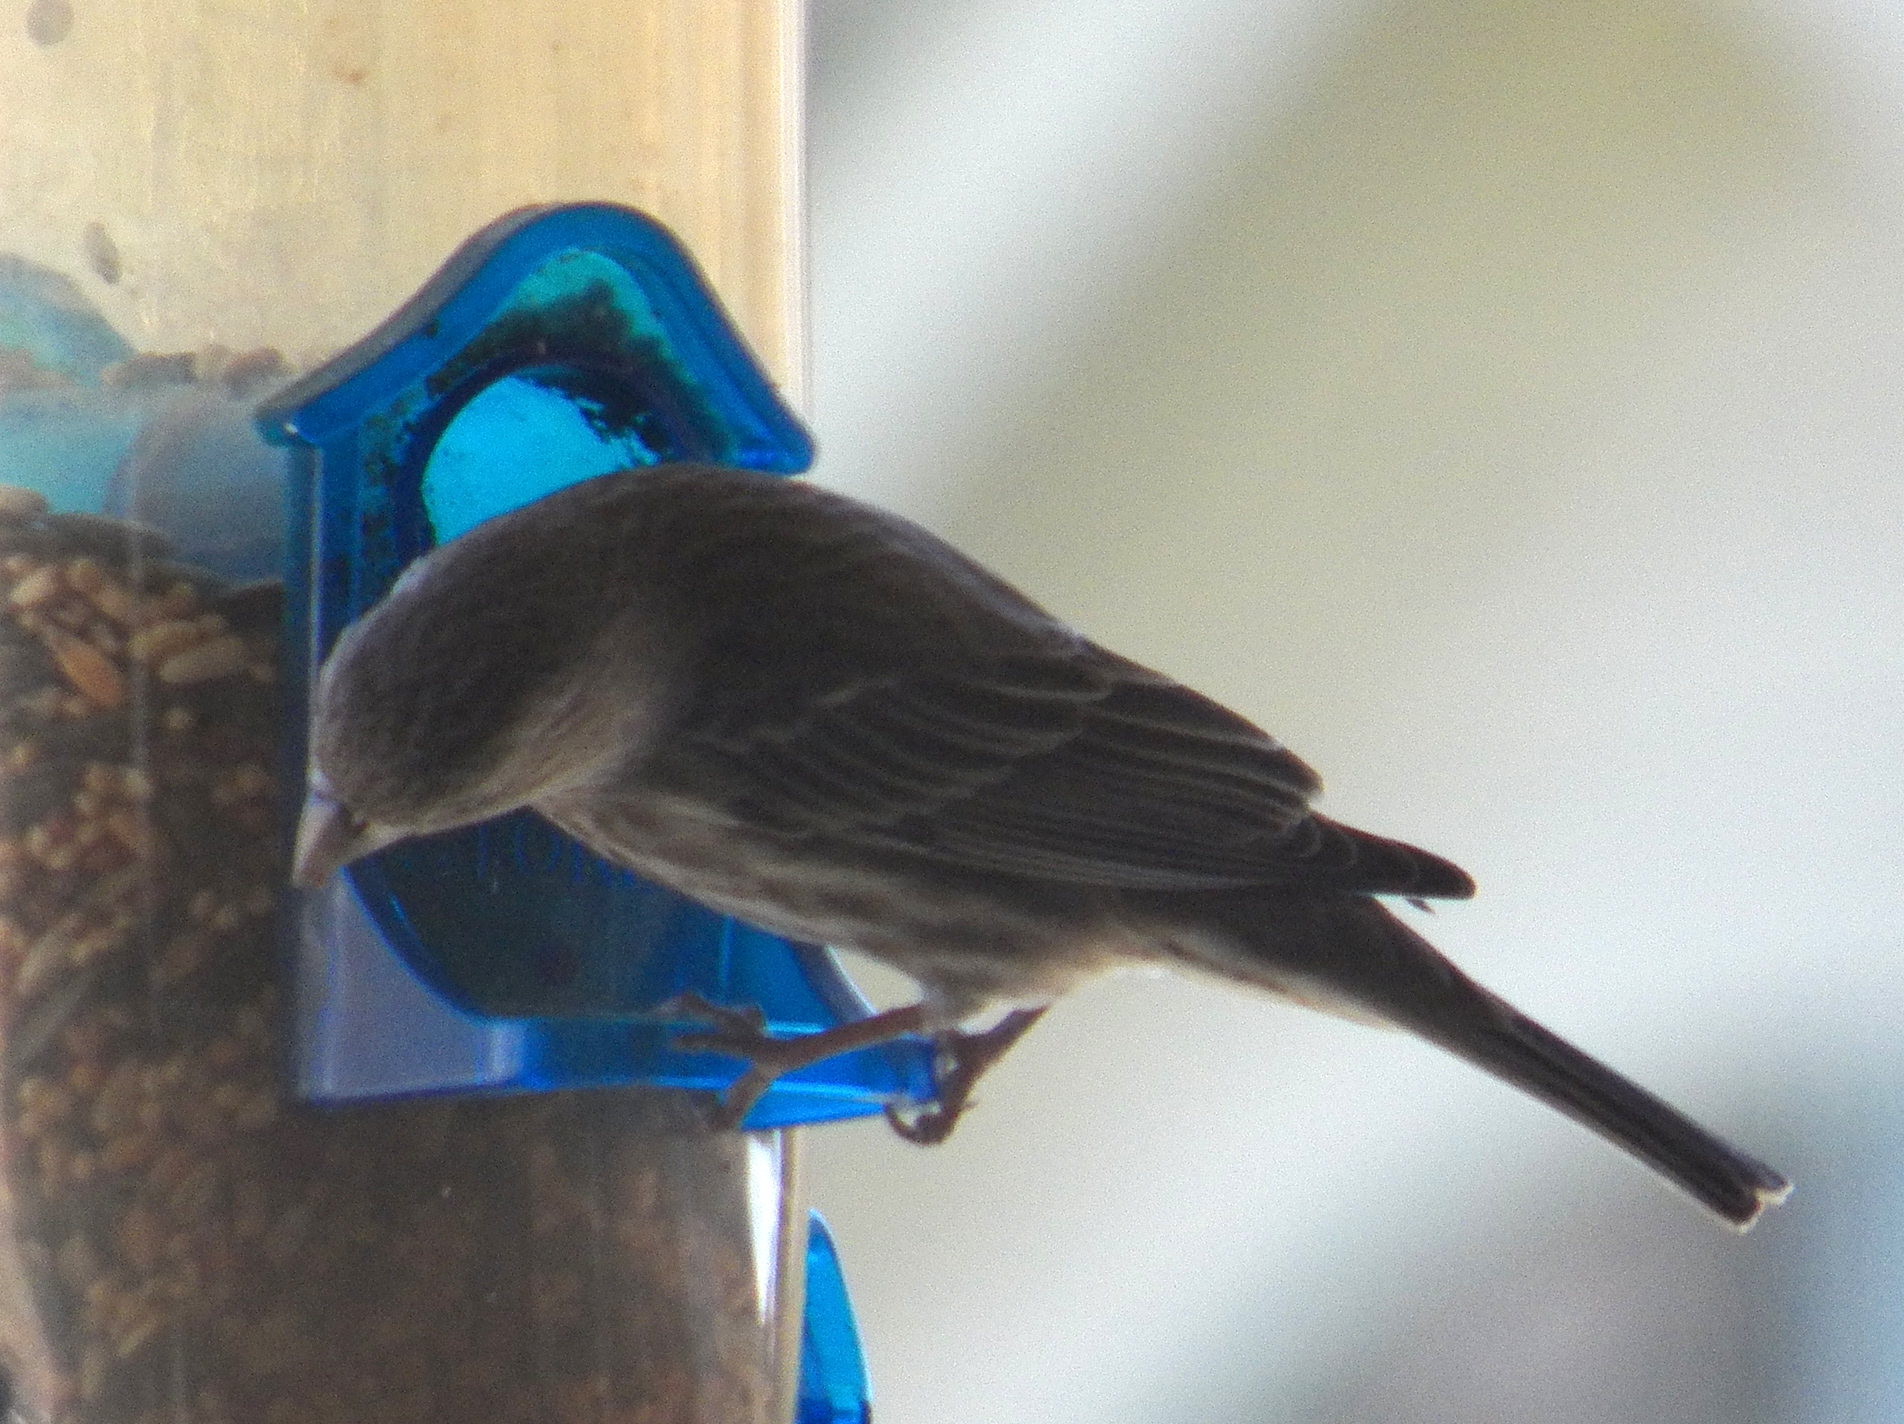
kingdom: Animalia
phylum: Chordata
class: Aves
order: Passeriformes
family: Fringillidae
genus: Haemorhous
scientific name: Haemorhous mexicanus
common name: House finch
